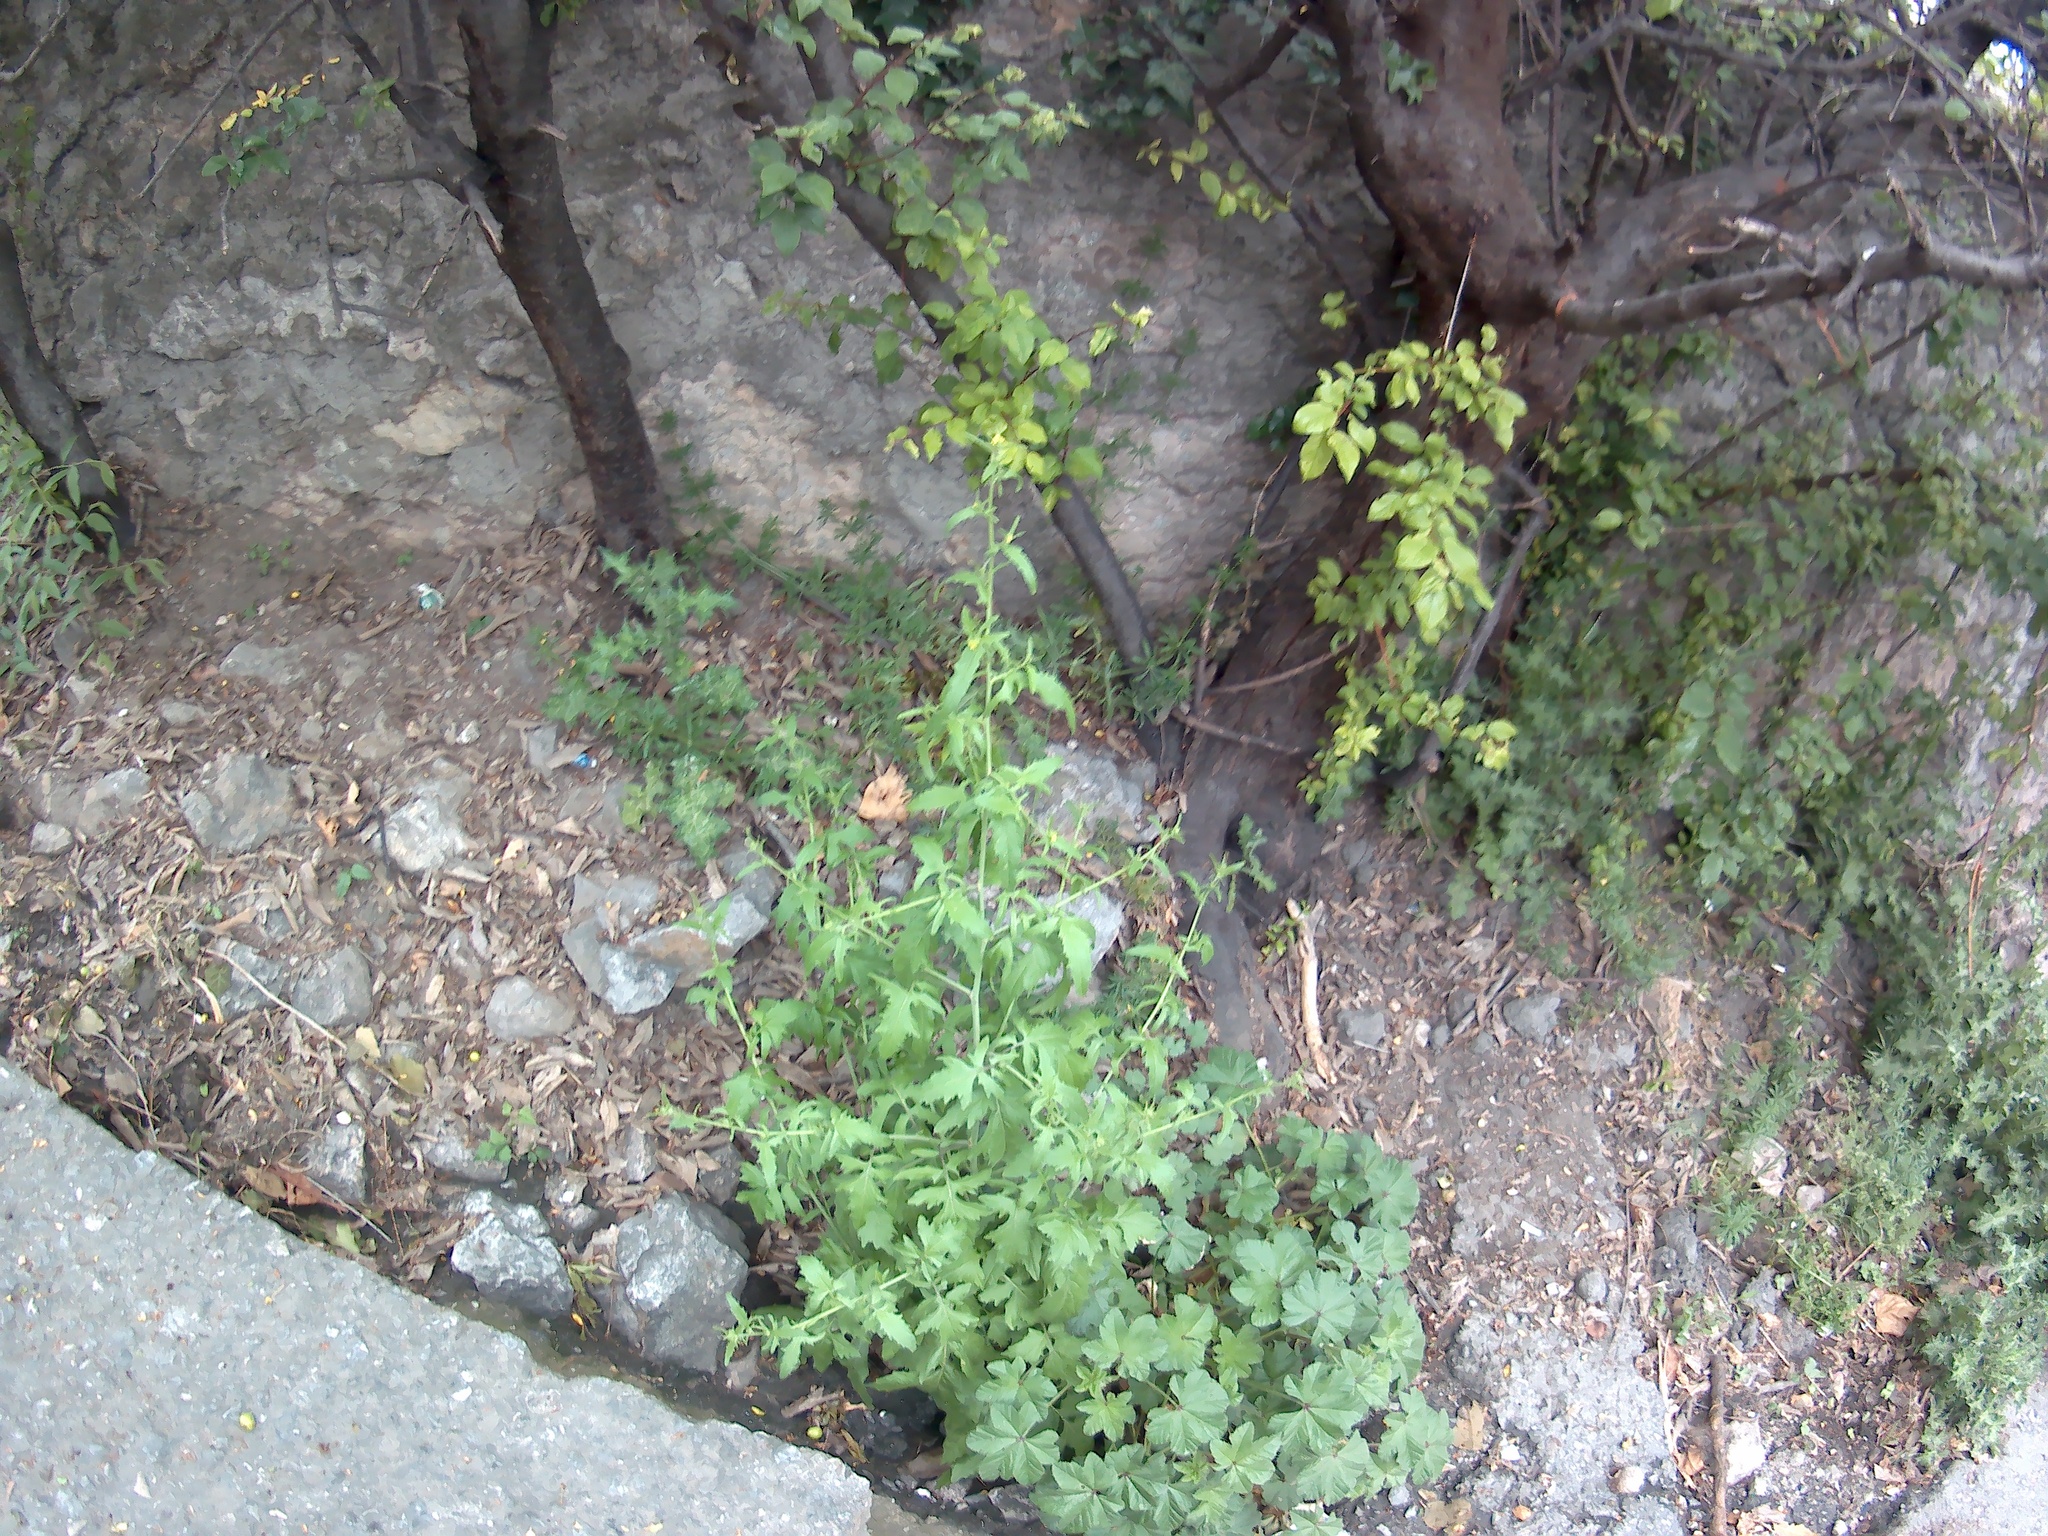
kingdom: Plantae
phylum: Tracheophyta
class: Magnoliopsida
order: Brassicales
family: Brassicaceae
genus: Sisymbrium
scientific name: Sisymbrium officinale
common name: Hedge mustard
